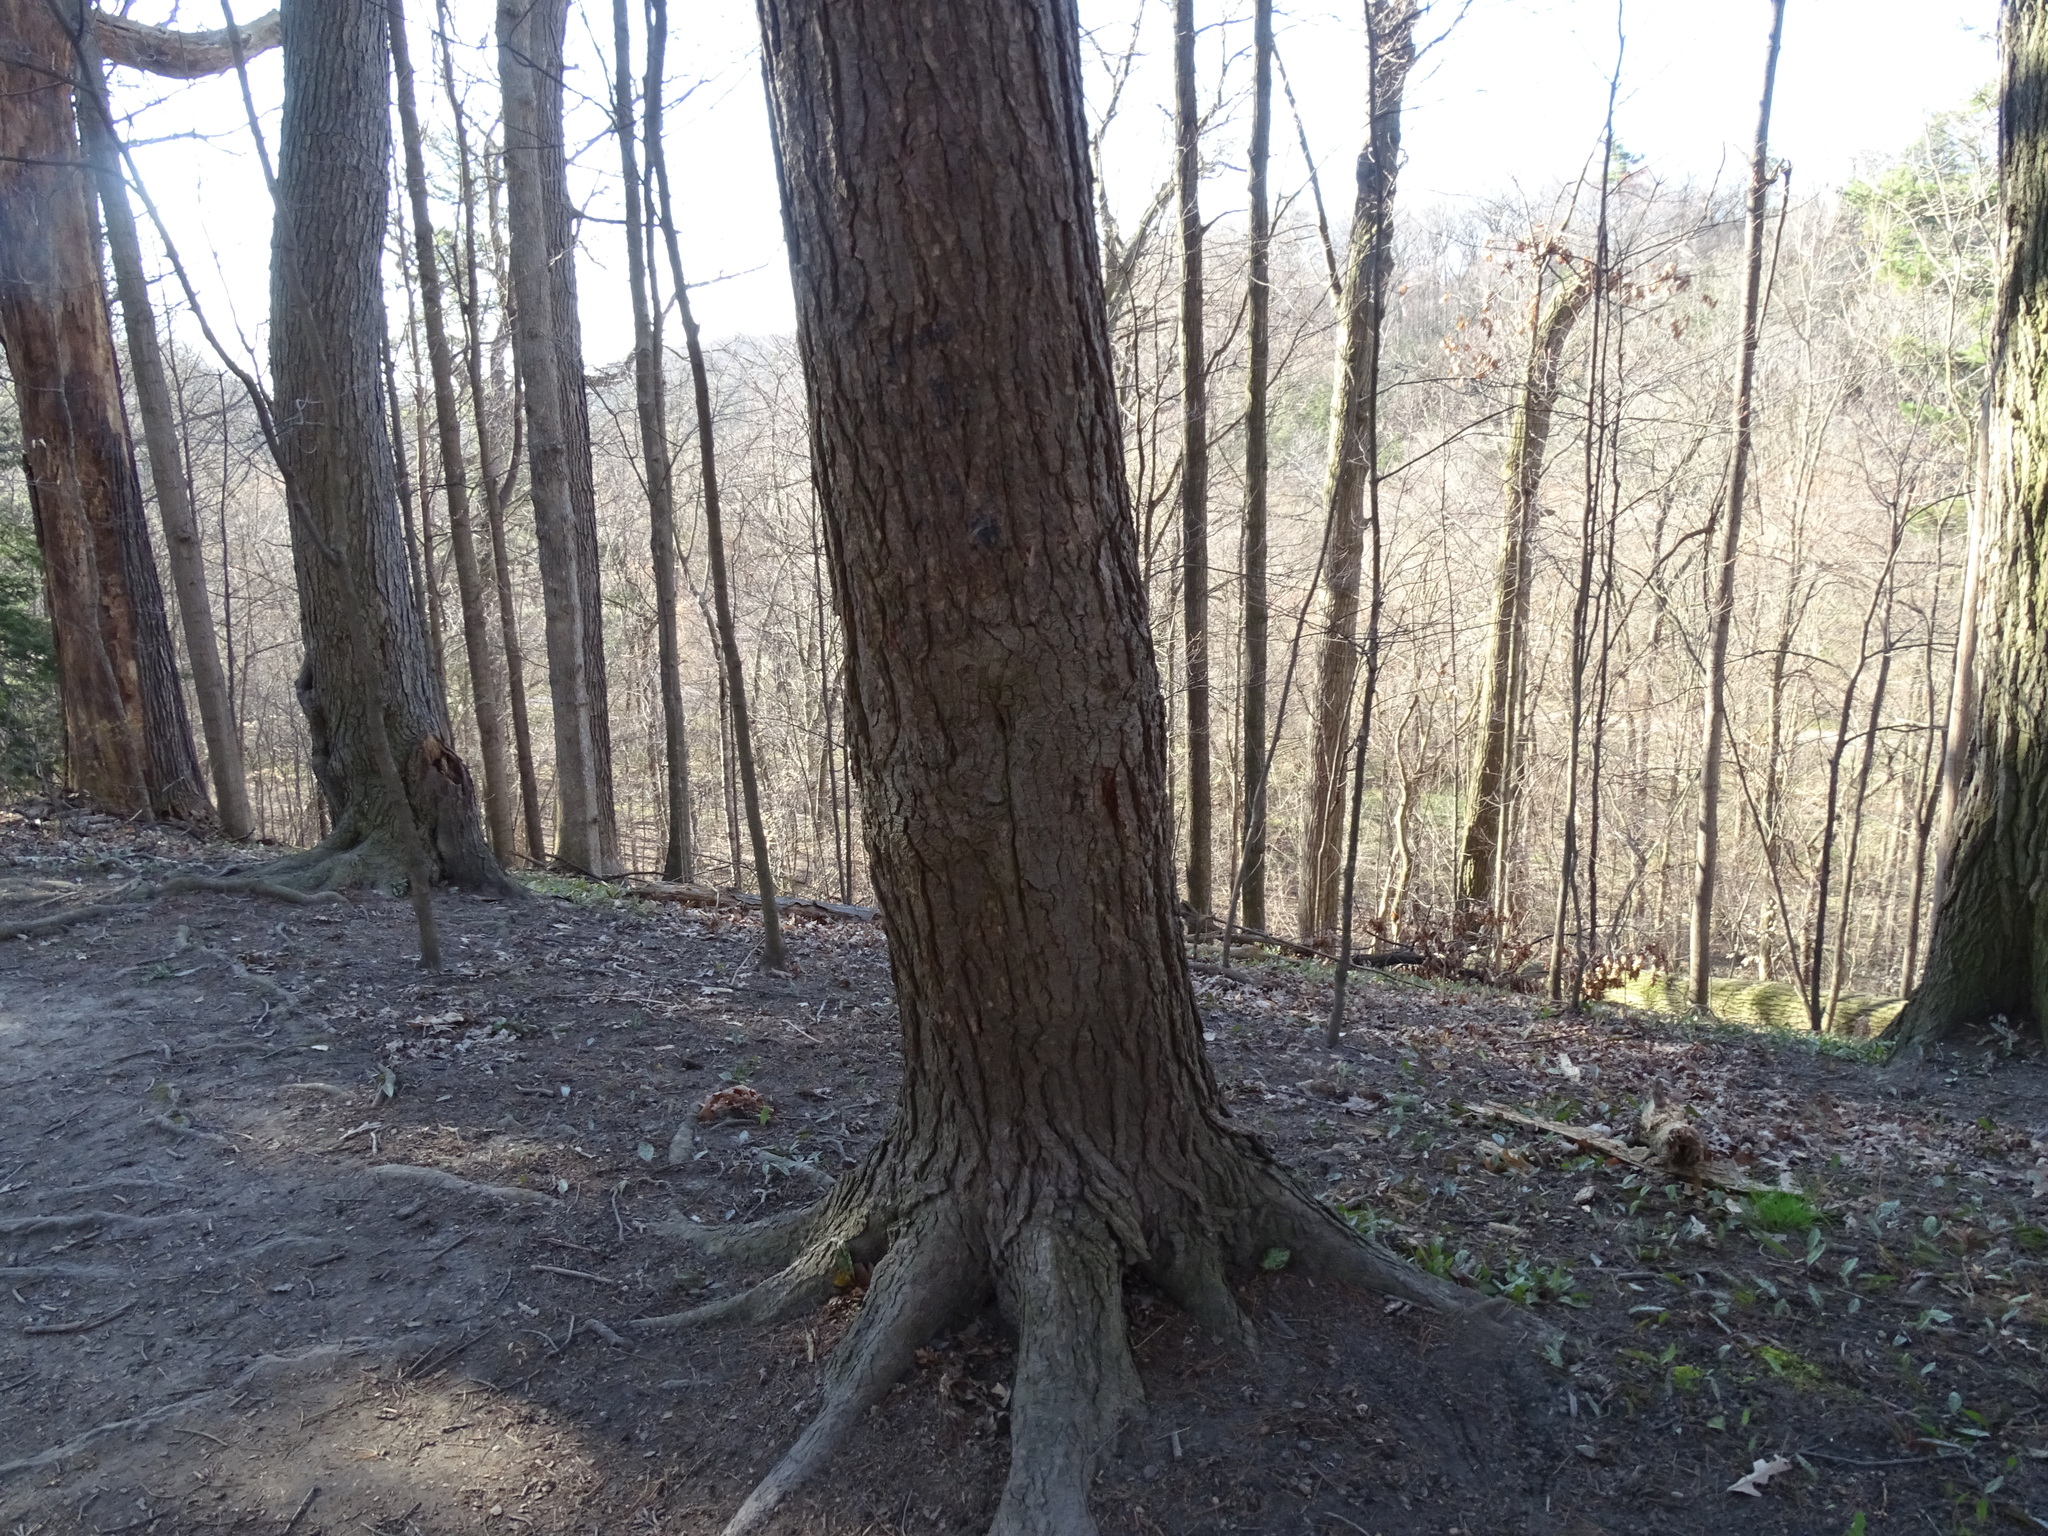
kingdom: Plantae
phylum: Tracheophyta
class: Pinopsida
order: Pinales
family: Pinaceae
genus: Tsuga
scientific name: Tsuga canadensis
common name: Eastern hemlock
